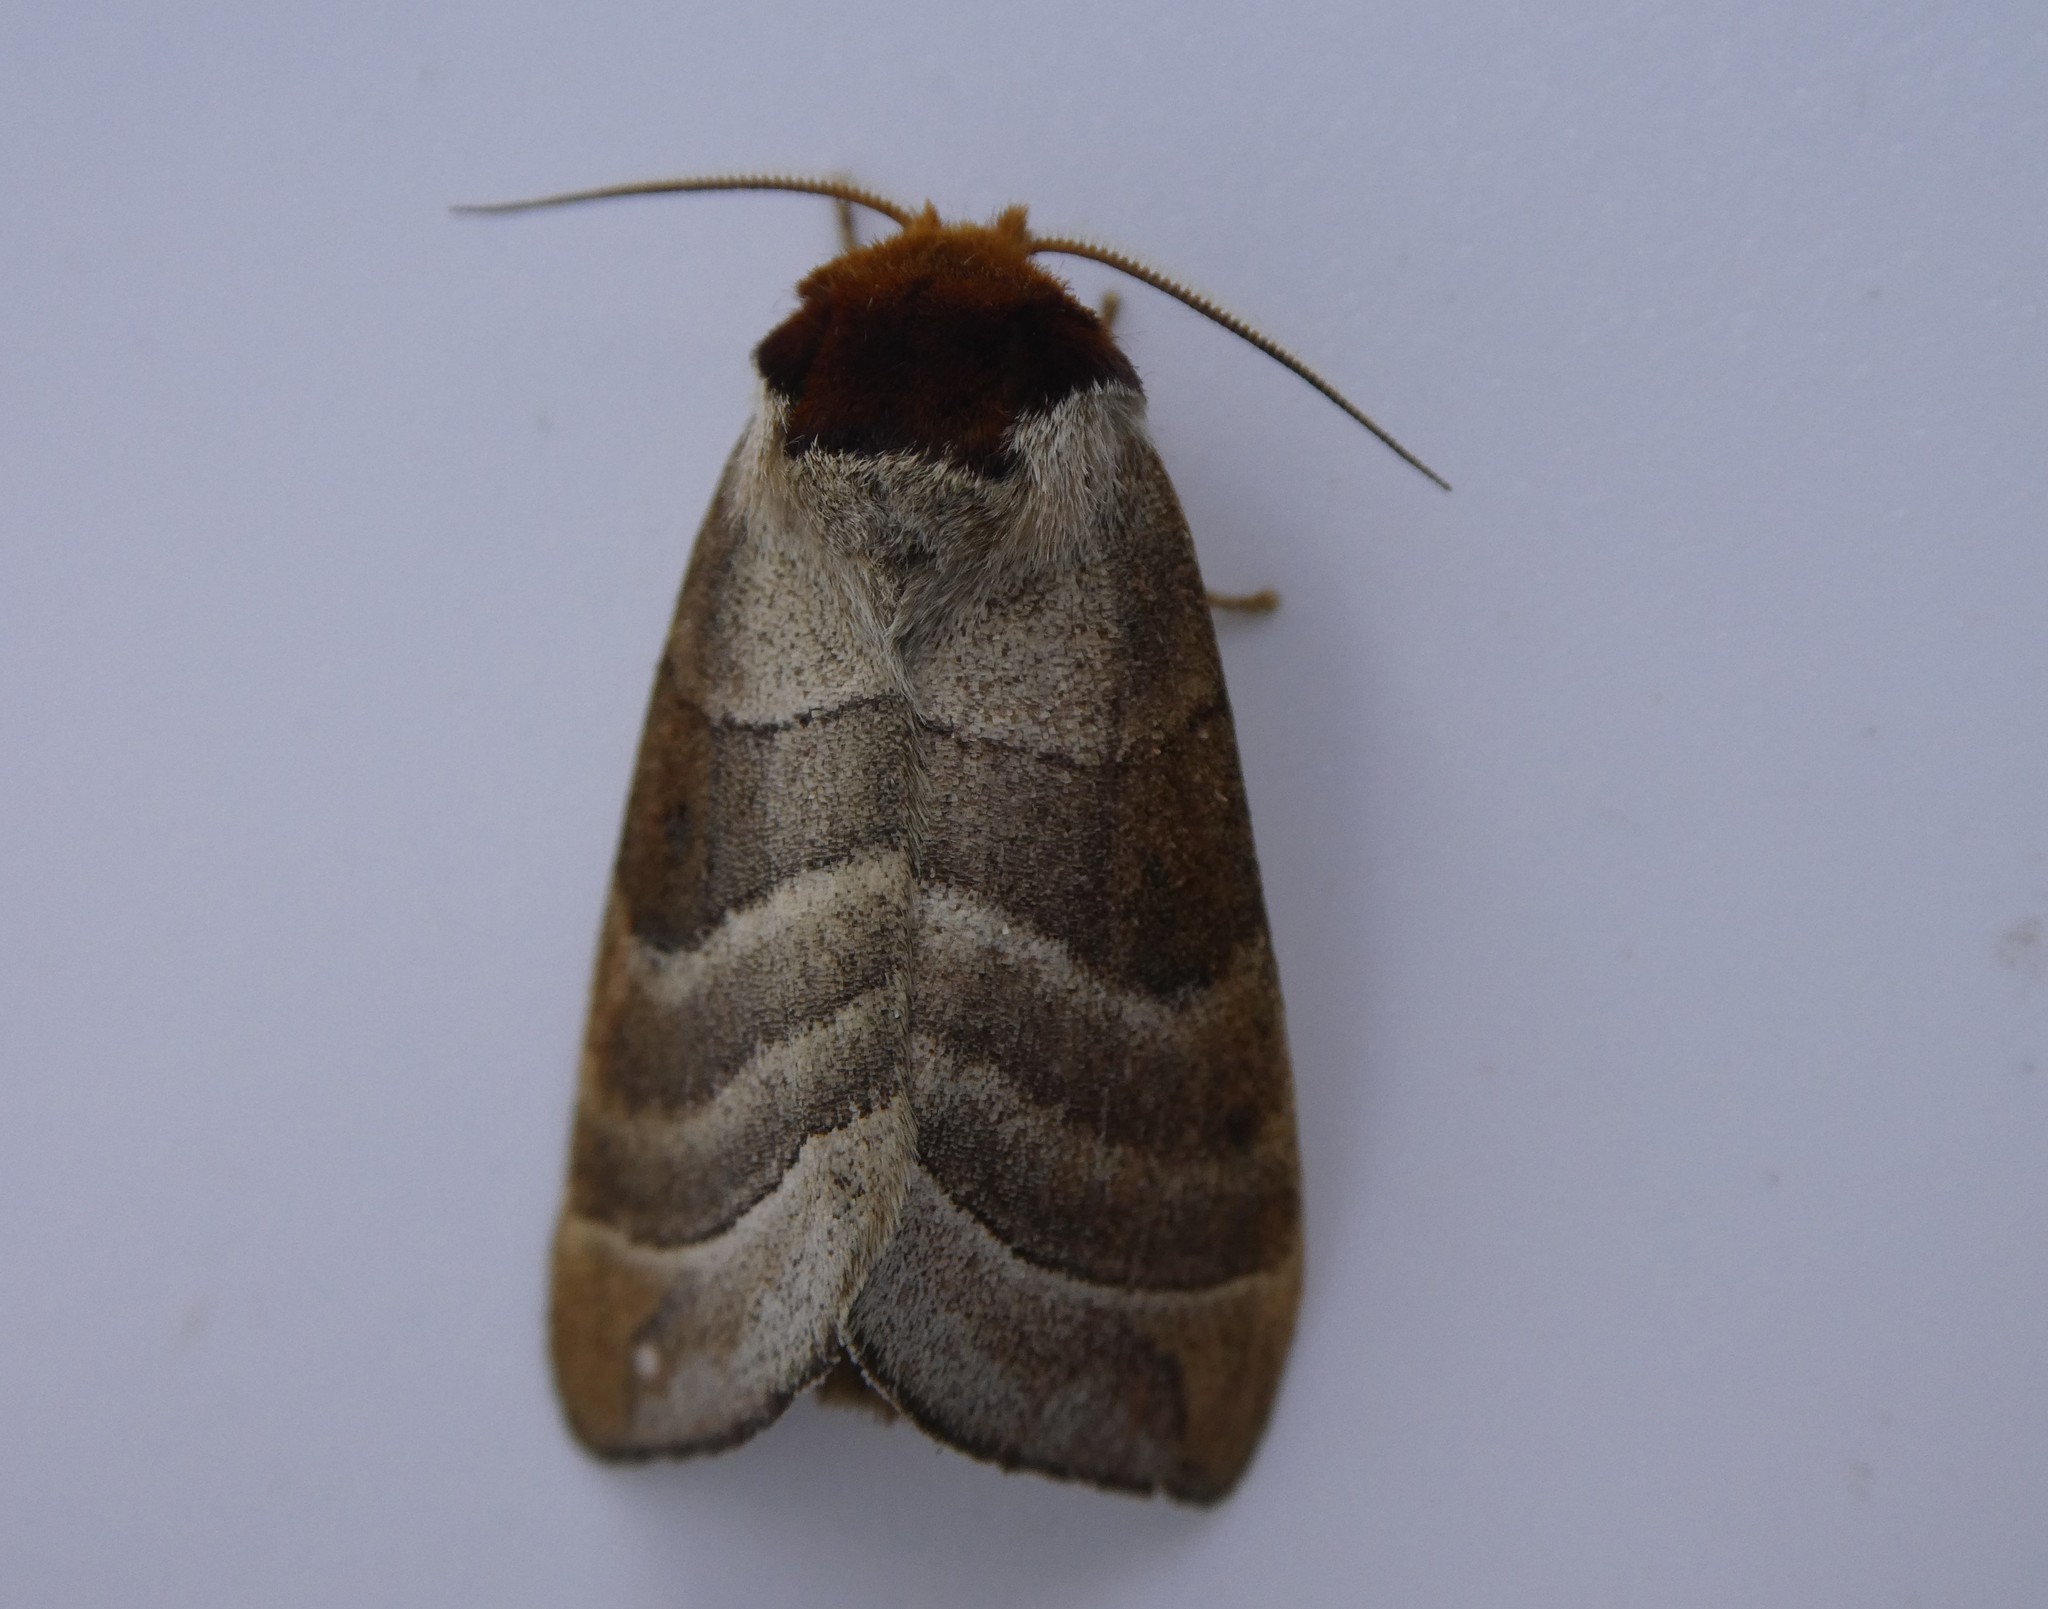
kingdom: Animalia
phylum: Arthropoda
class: Insecta
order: Lepidoptera
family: Notodontidae
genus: Datana
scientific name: Datana integerrima
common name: Walnut caterpillar
